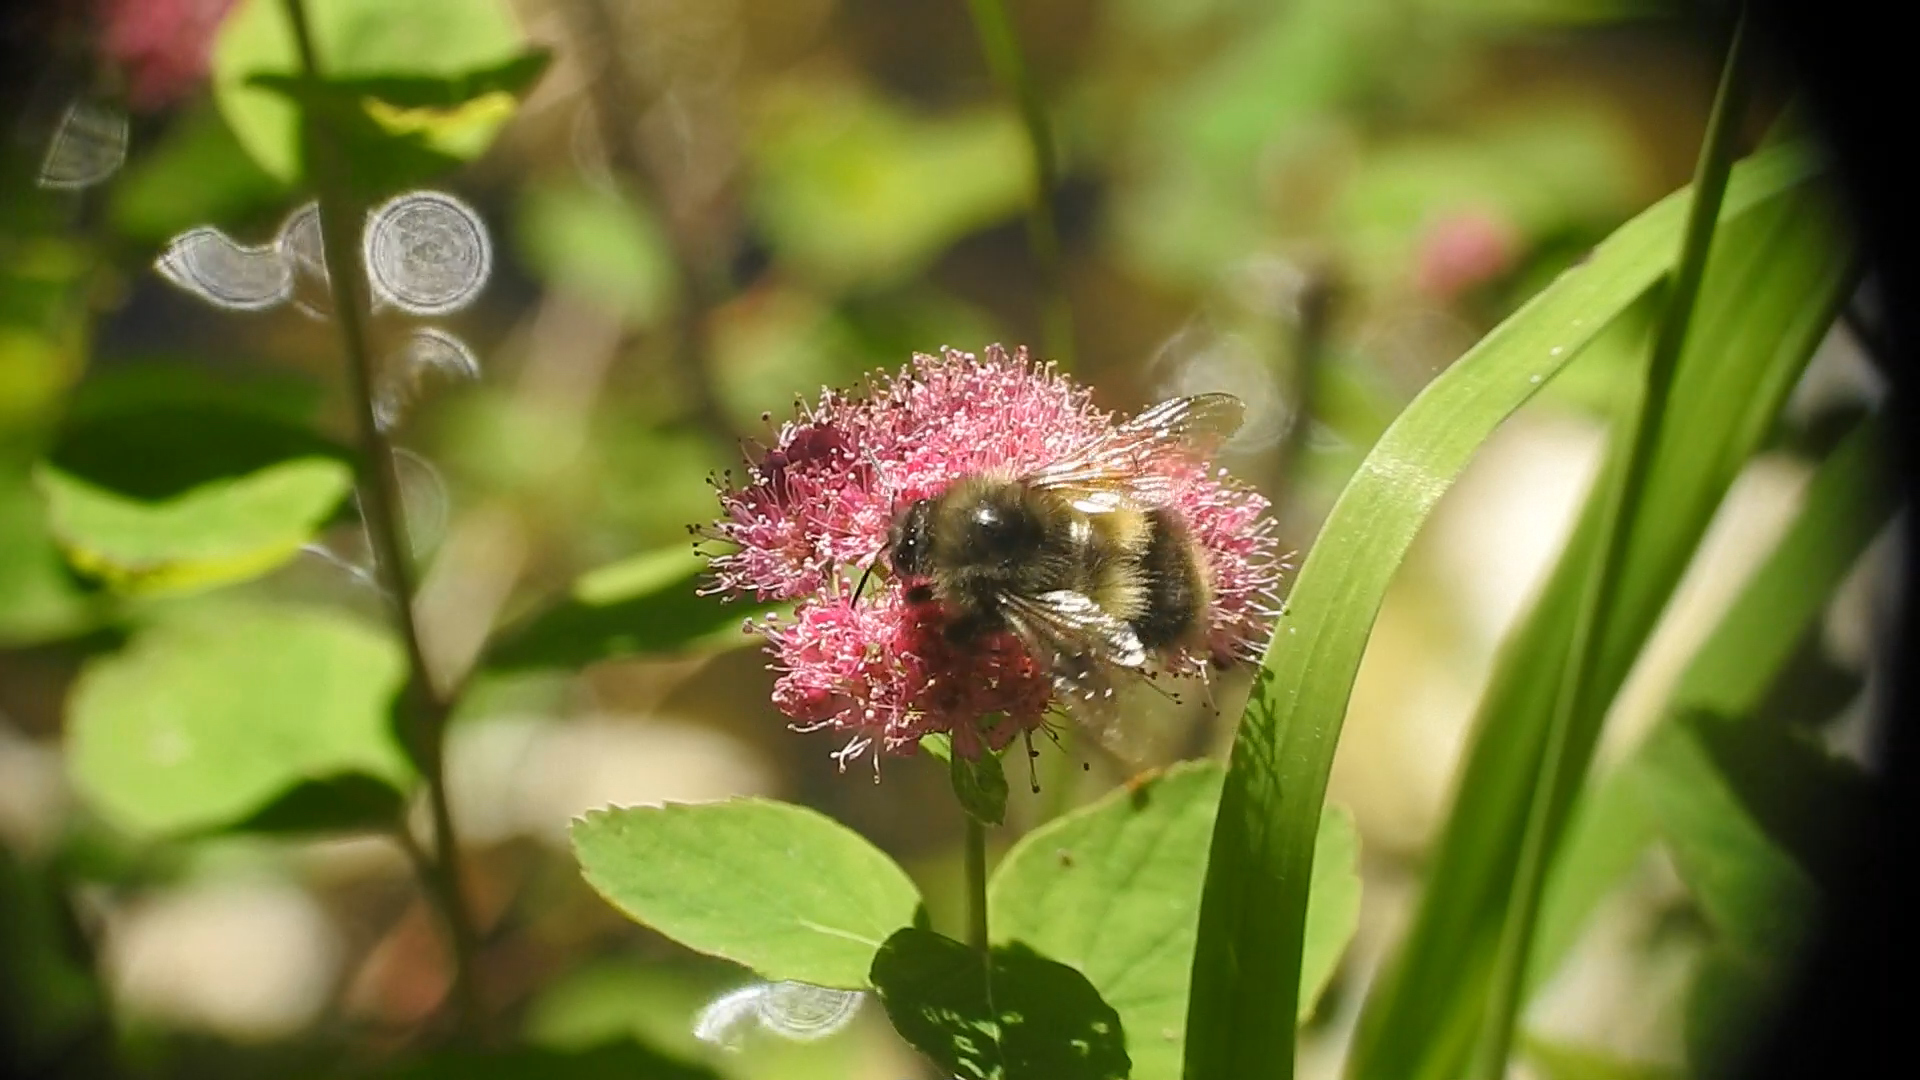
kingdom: Animalia
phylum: Arthropoda
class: Insecta
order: Hymenoptera
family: Apidae
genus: Bombus
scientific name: Bombus sitkensis
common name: Sitka bumble bee
